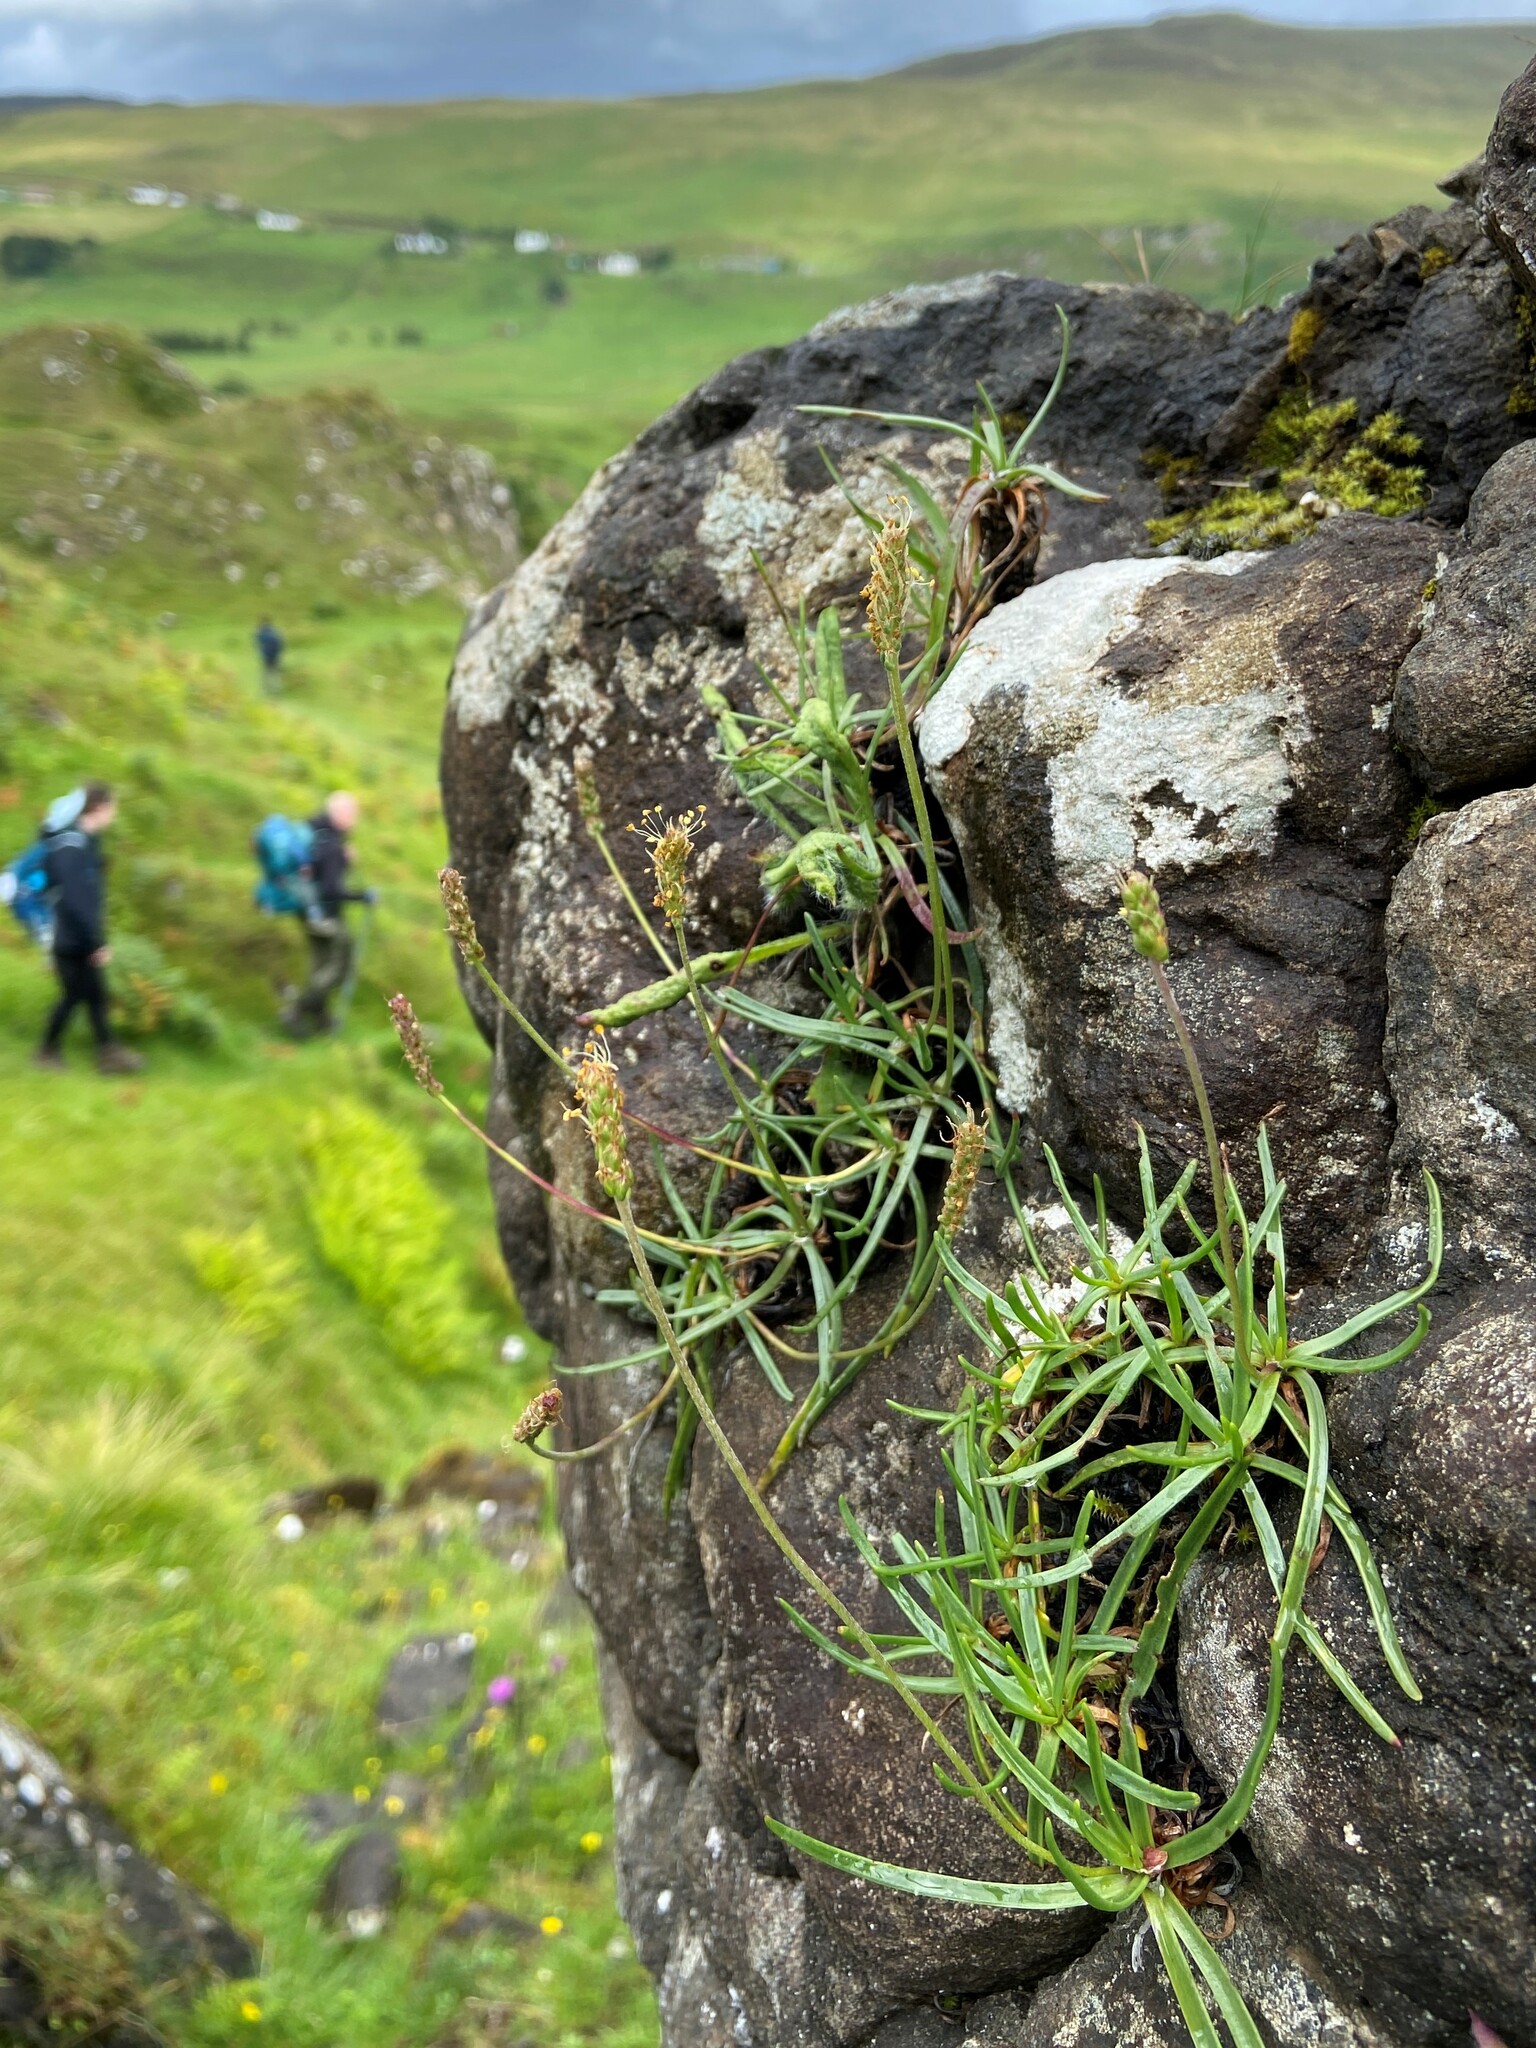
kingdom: Plantae
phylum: Tracheophyta
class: Magnoliopsida
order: Lamiales
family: Plantaginaceae
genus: Plantago
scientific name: Plantago maritima
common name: Sea plantain
